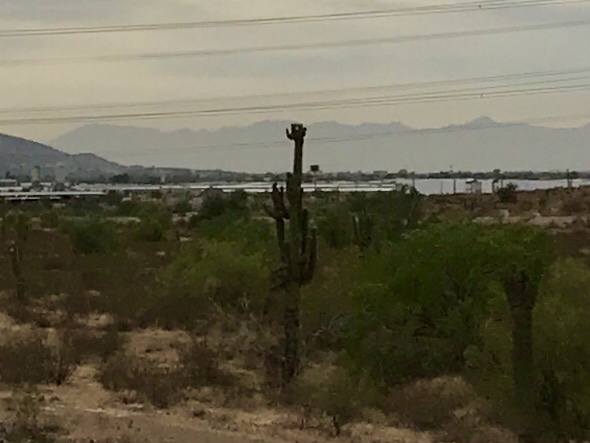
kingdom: Plantae
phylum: Tracheophyta
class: Magnoliopsida
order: Caryophyllales
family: Cactaceae
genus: Carnegiea
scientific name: Carnegiea gigantea
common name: Saguaro
